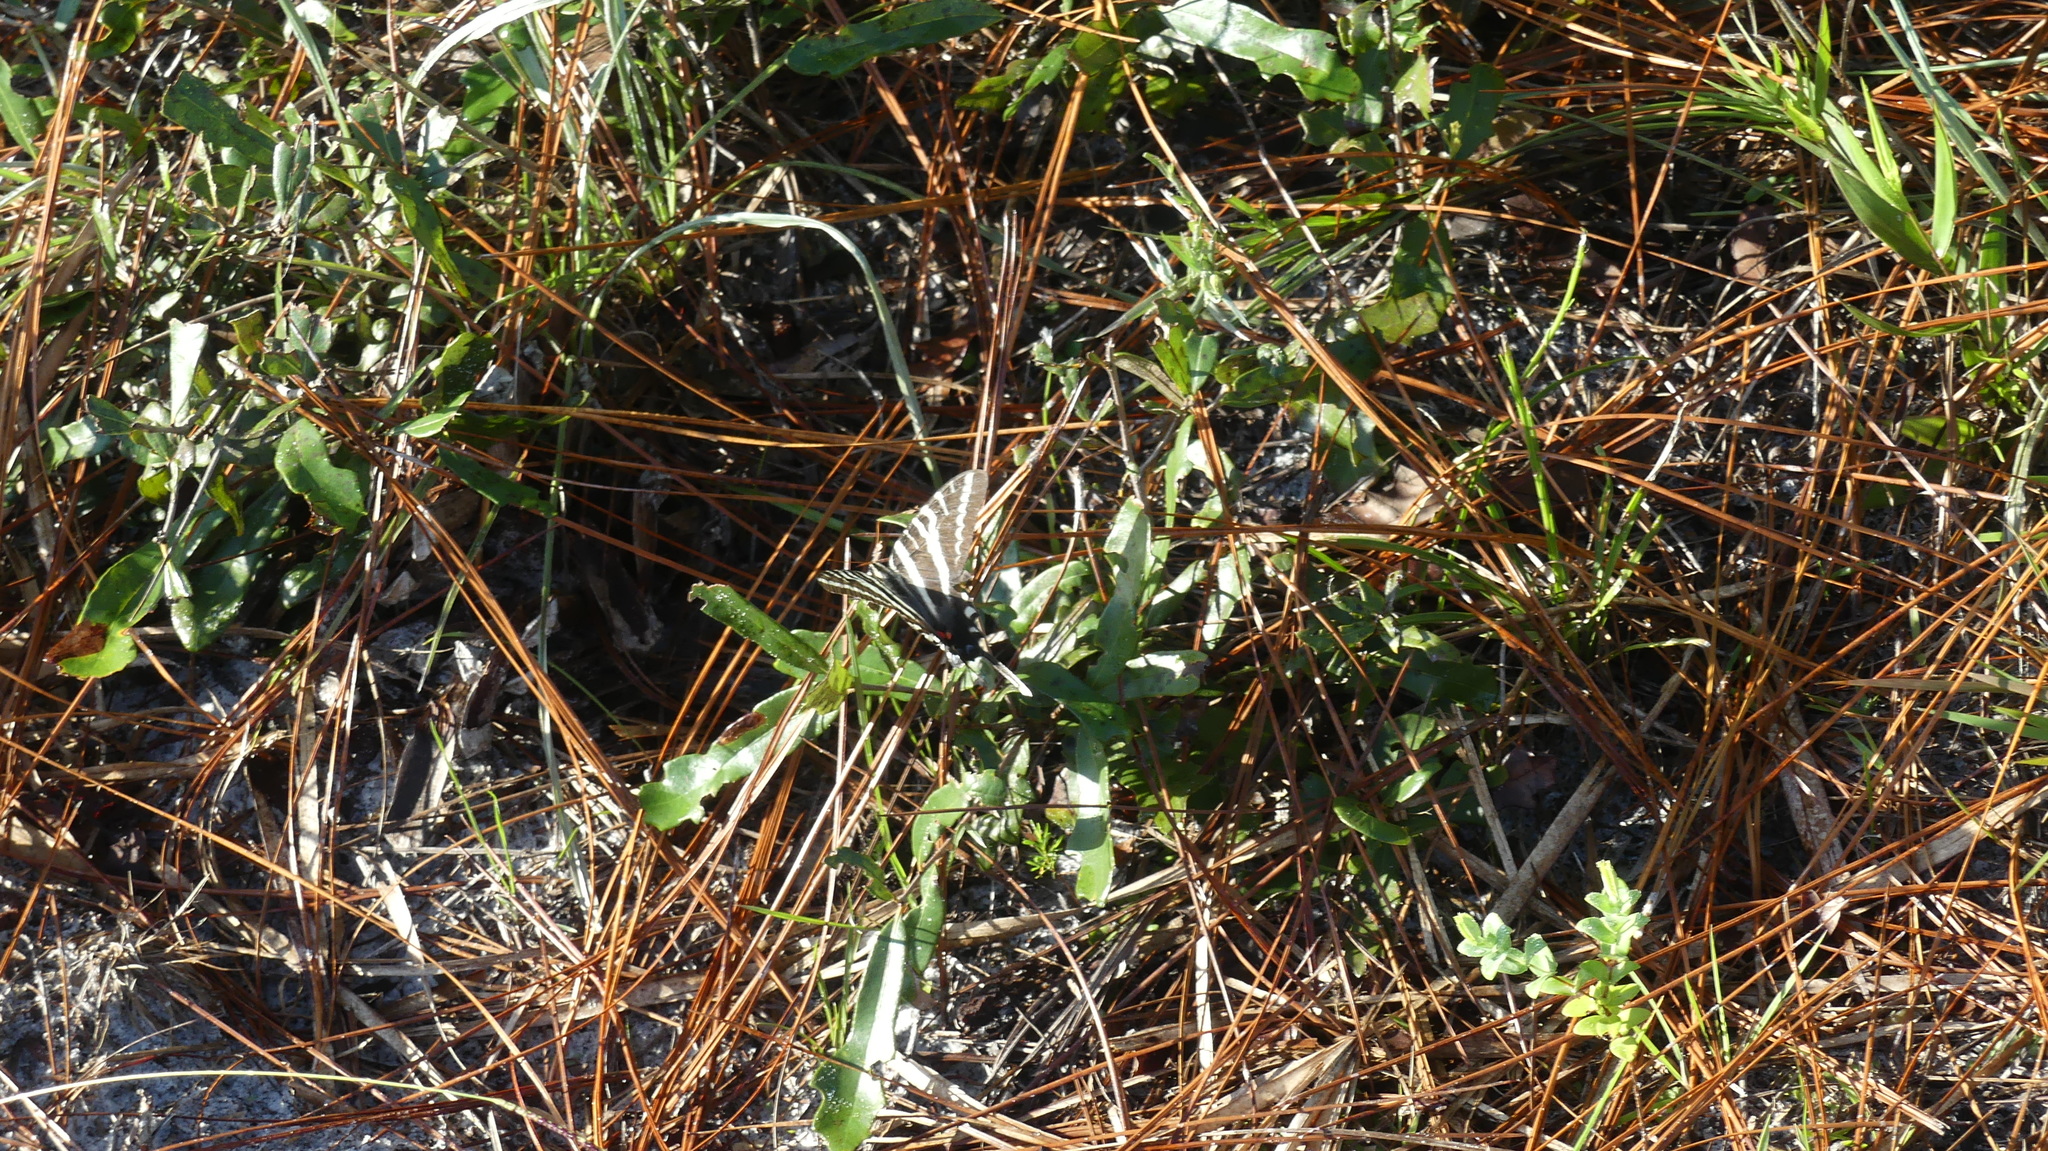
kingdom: Animalia
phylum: Arthropoda
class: Insecta
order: Lepidoptera
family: Papilionidae
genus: Protographium
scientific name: Protographium marcellus
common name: Zebra swallowtail
